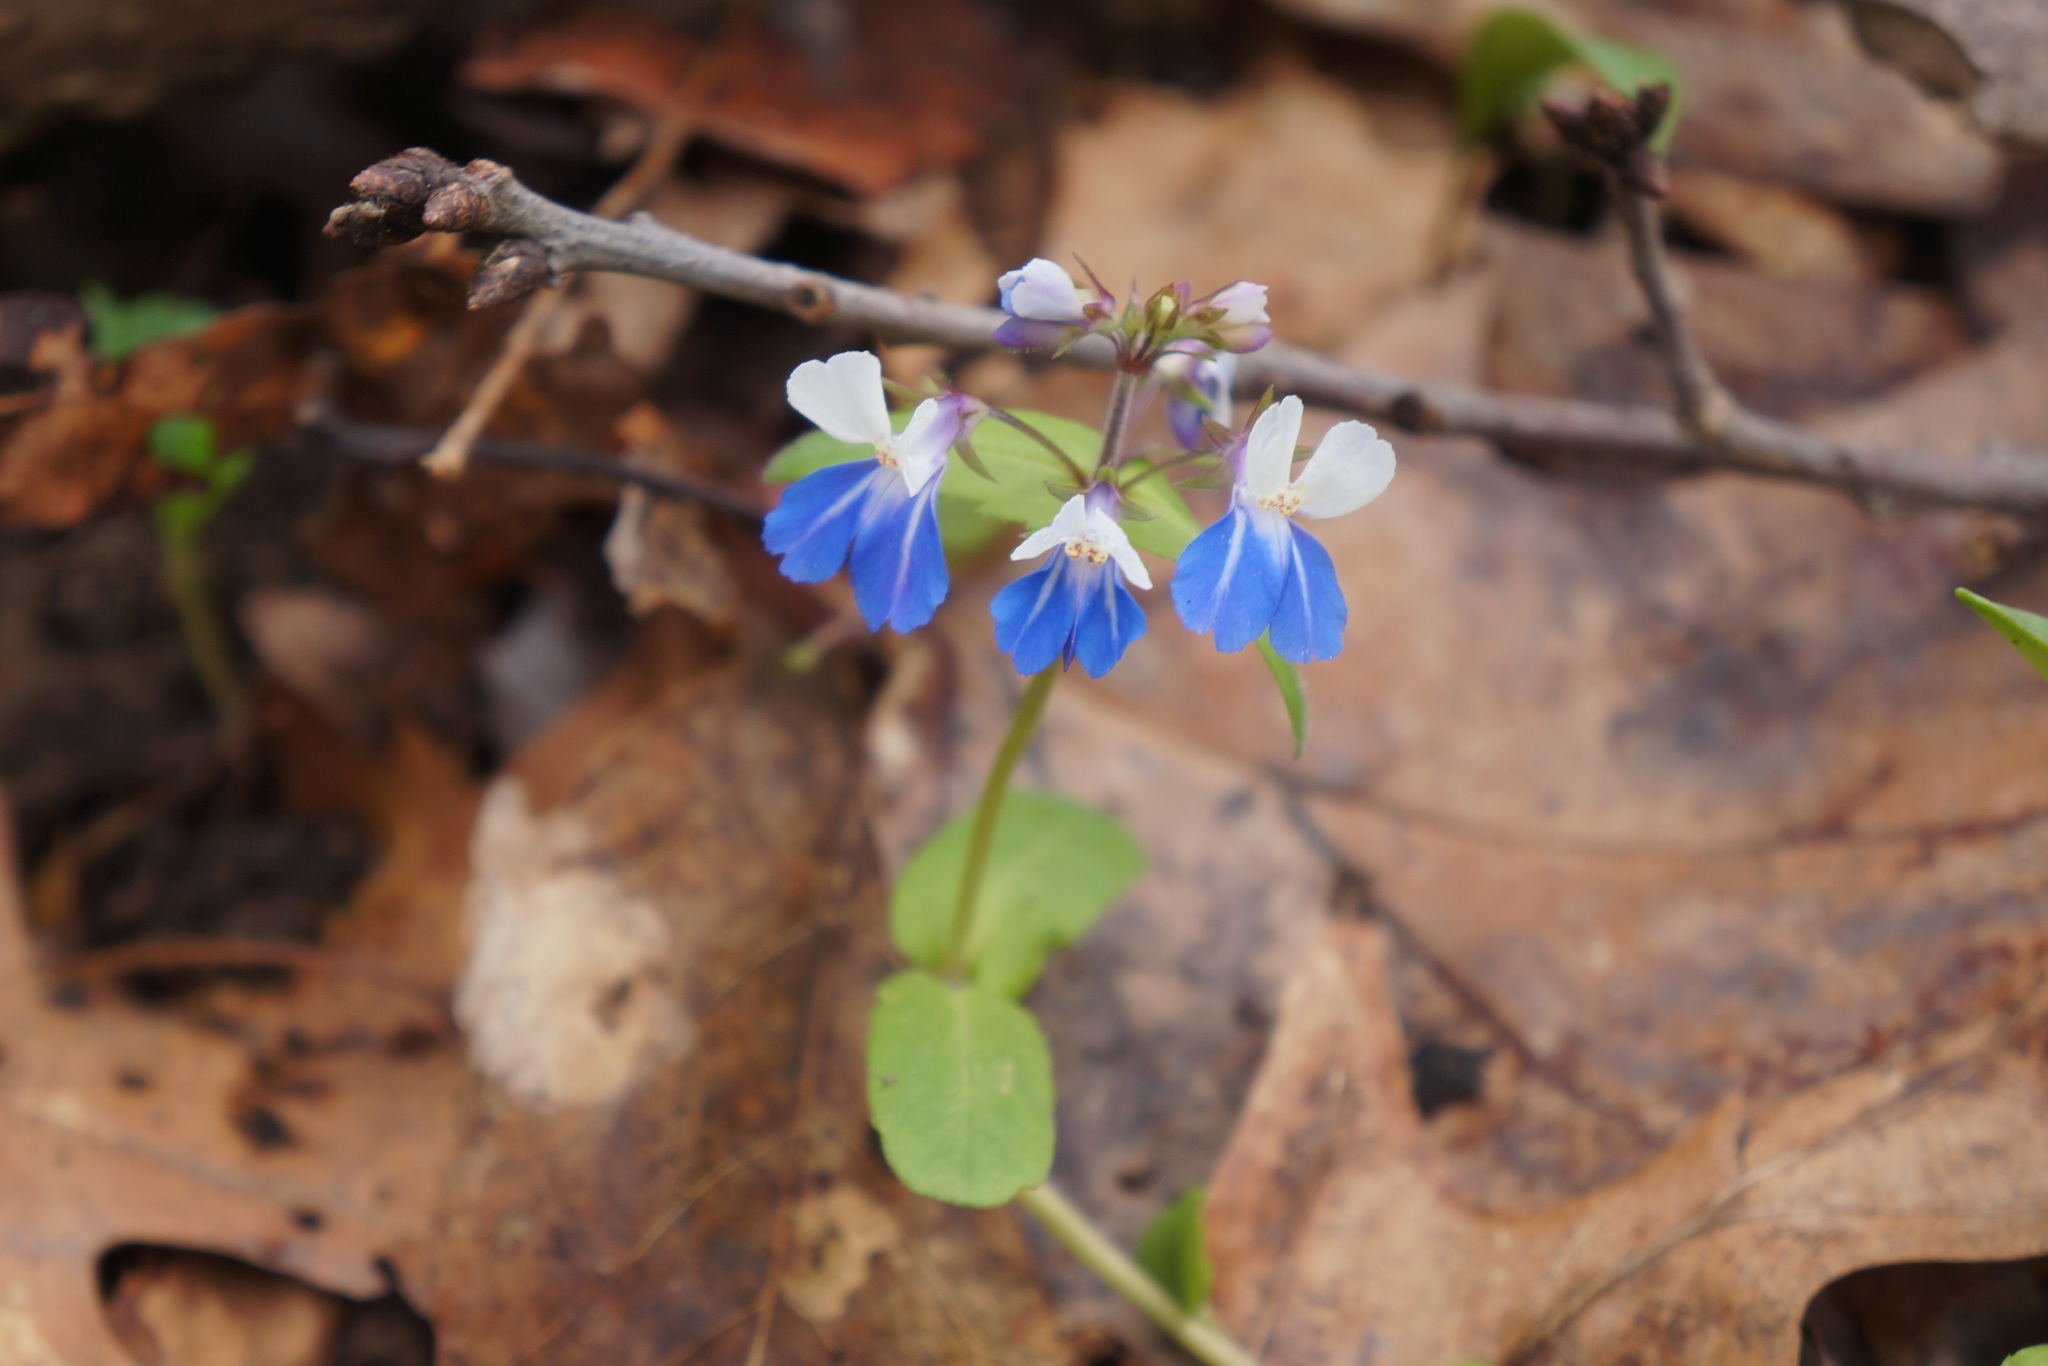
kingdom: Plantae
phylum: Tracheophyta
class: Magnoliopsida
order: Lamiales
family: Plantaginaceae
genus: Collinsia
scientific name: Collinsia verna
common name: Broad-leaved collinsia
